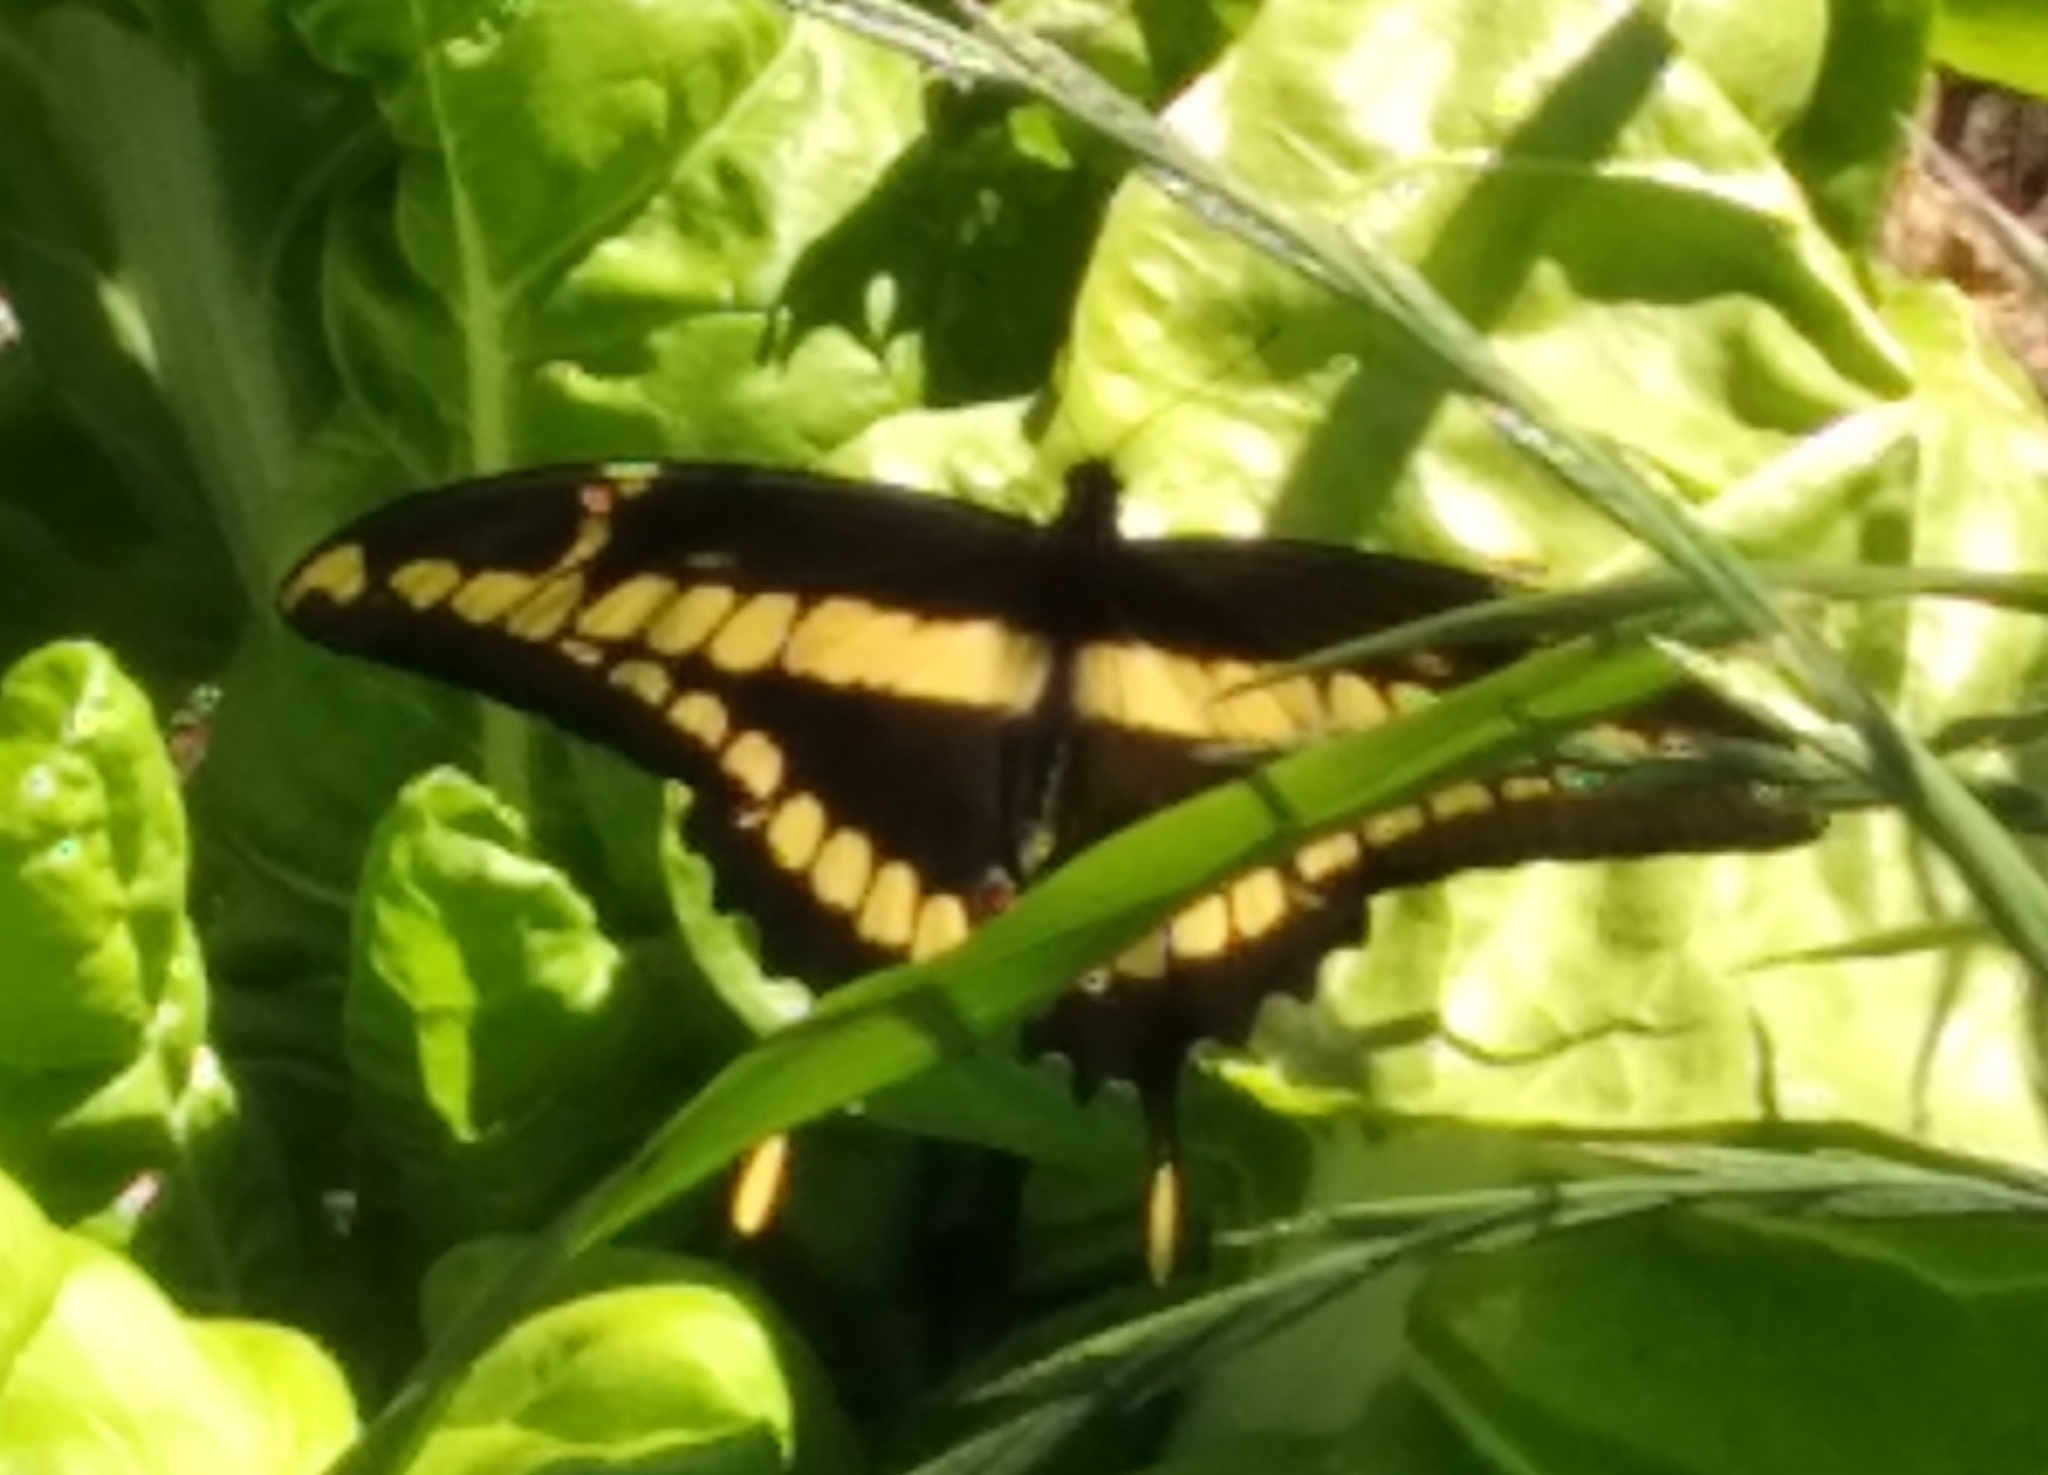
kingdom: Animalia
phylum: Arthropoda
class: Insecta
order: Lepidoptera
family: Papilionidae
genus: Papilio
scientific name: Papilio thoas
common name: King swallowtail
